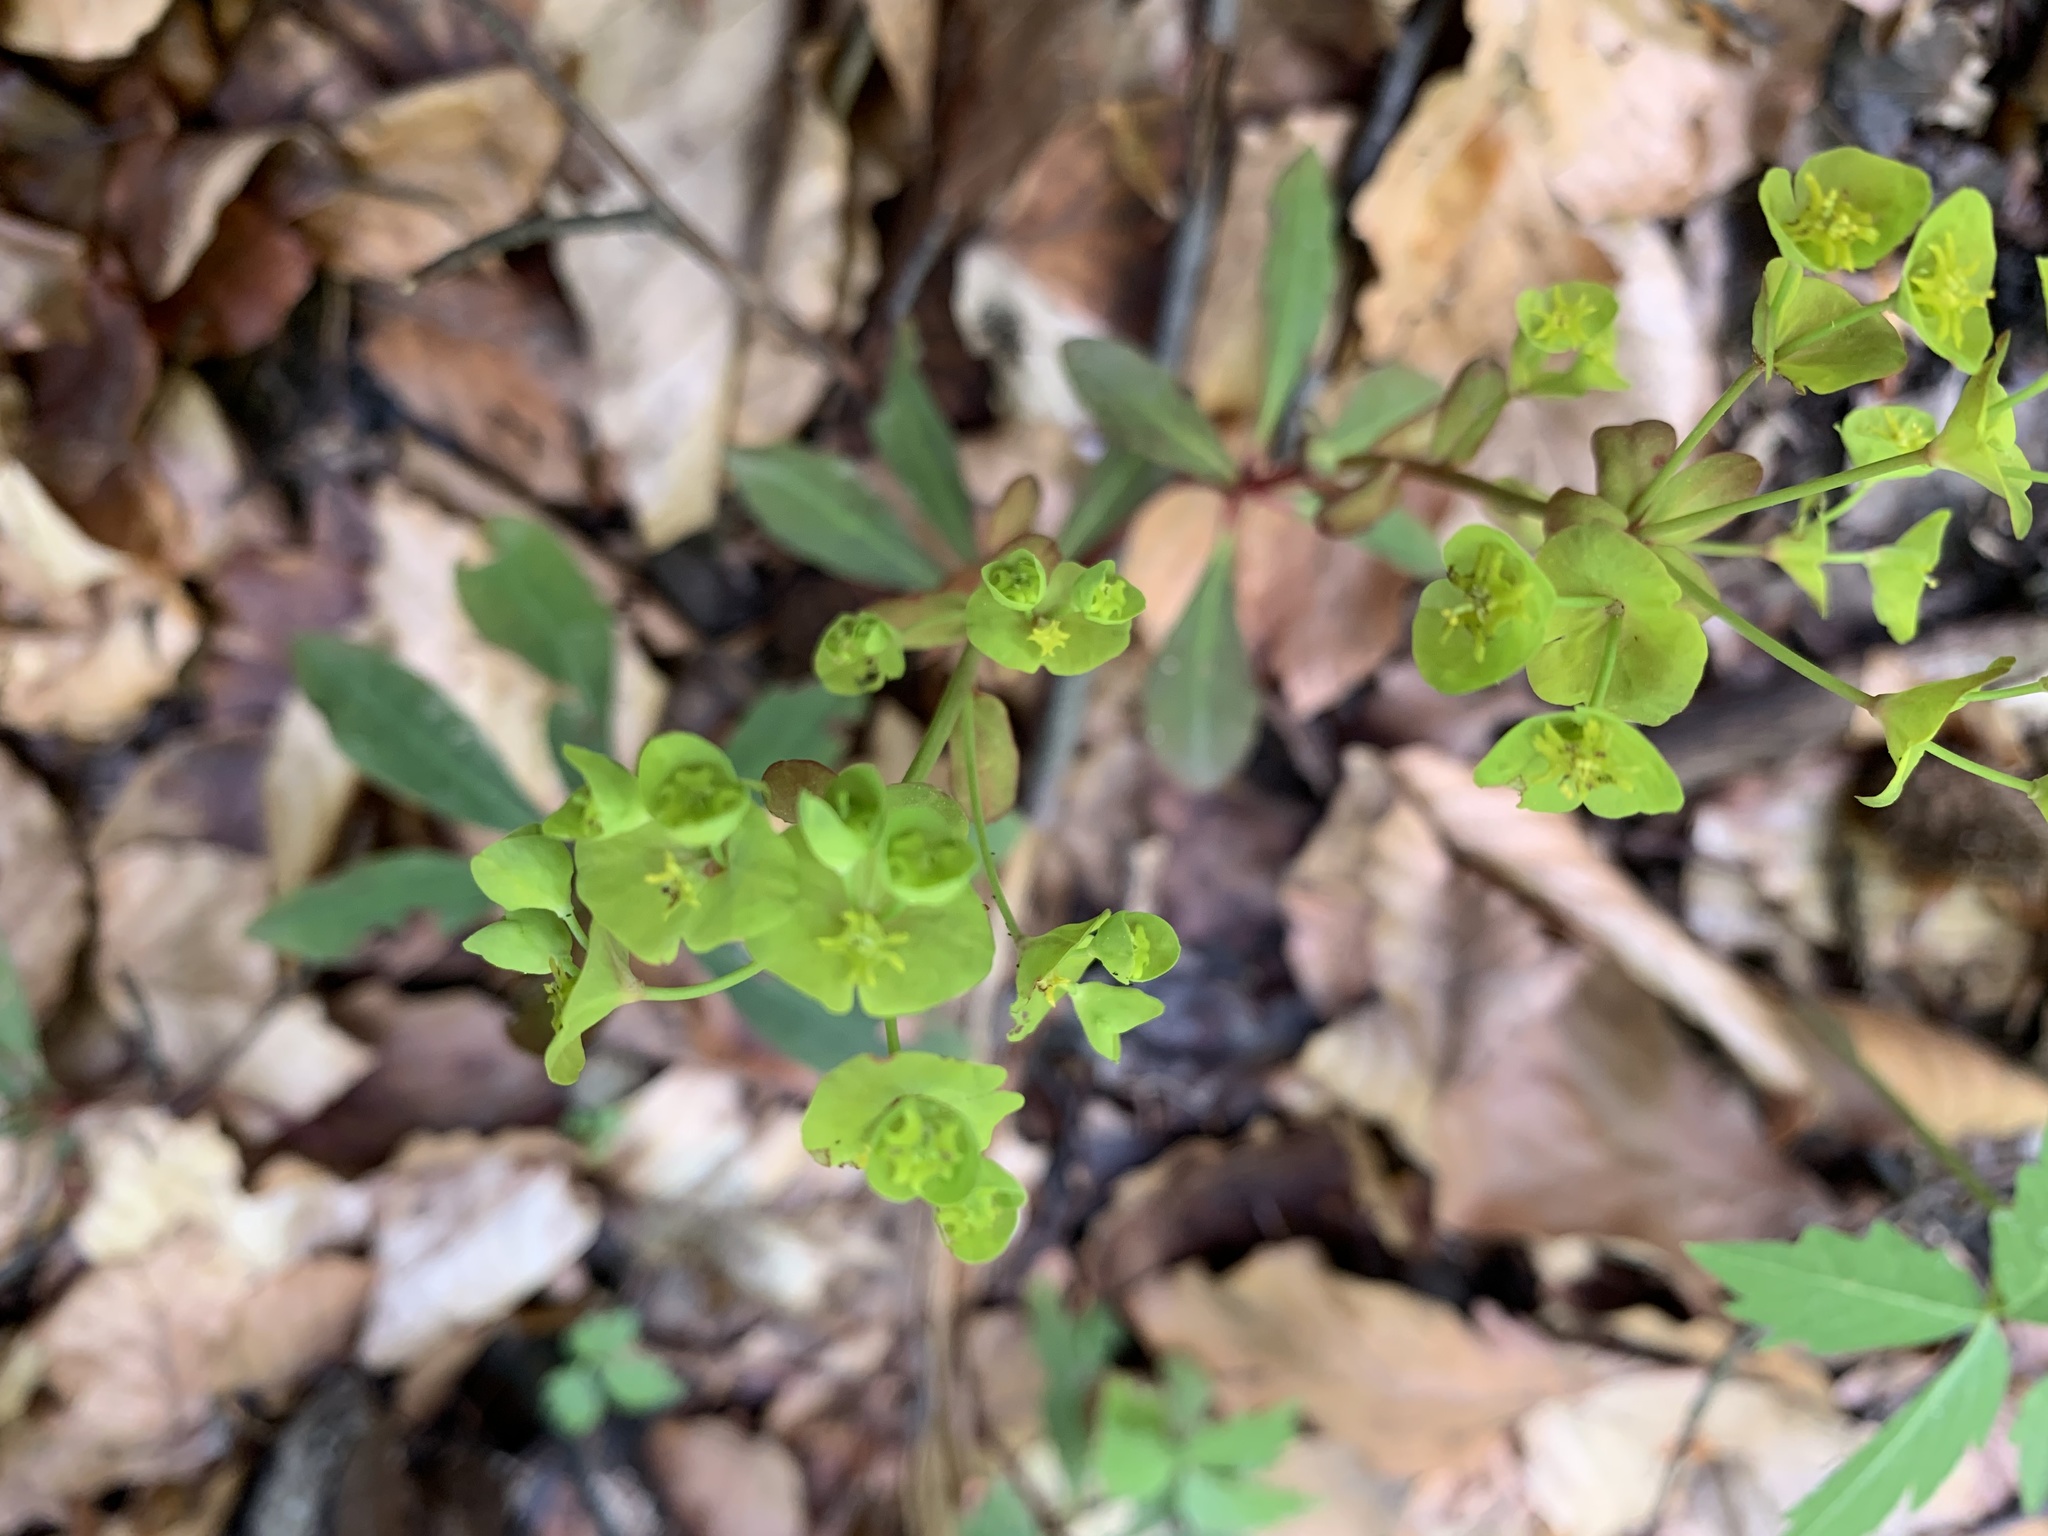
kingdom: Plantae
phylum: Tracheophyta
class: Magnoliopsida
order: Malpighiales
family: Euphorbiaceae
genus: Euphorbia
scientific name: Euphorbia amygdaloides
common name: Wood spurge
